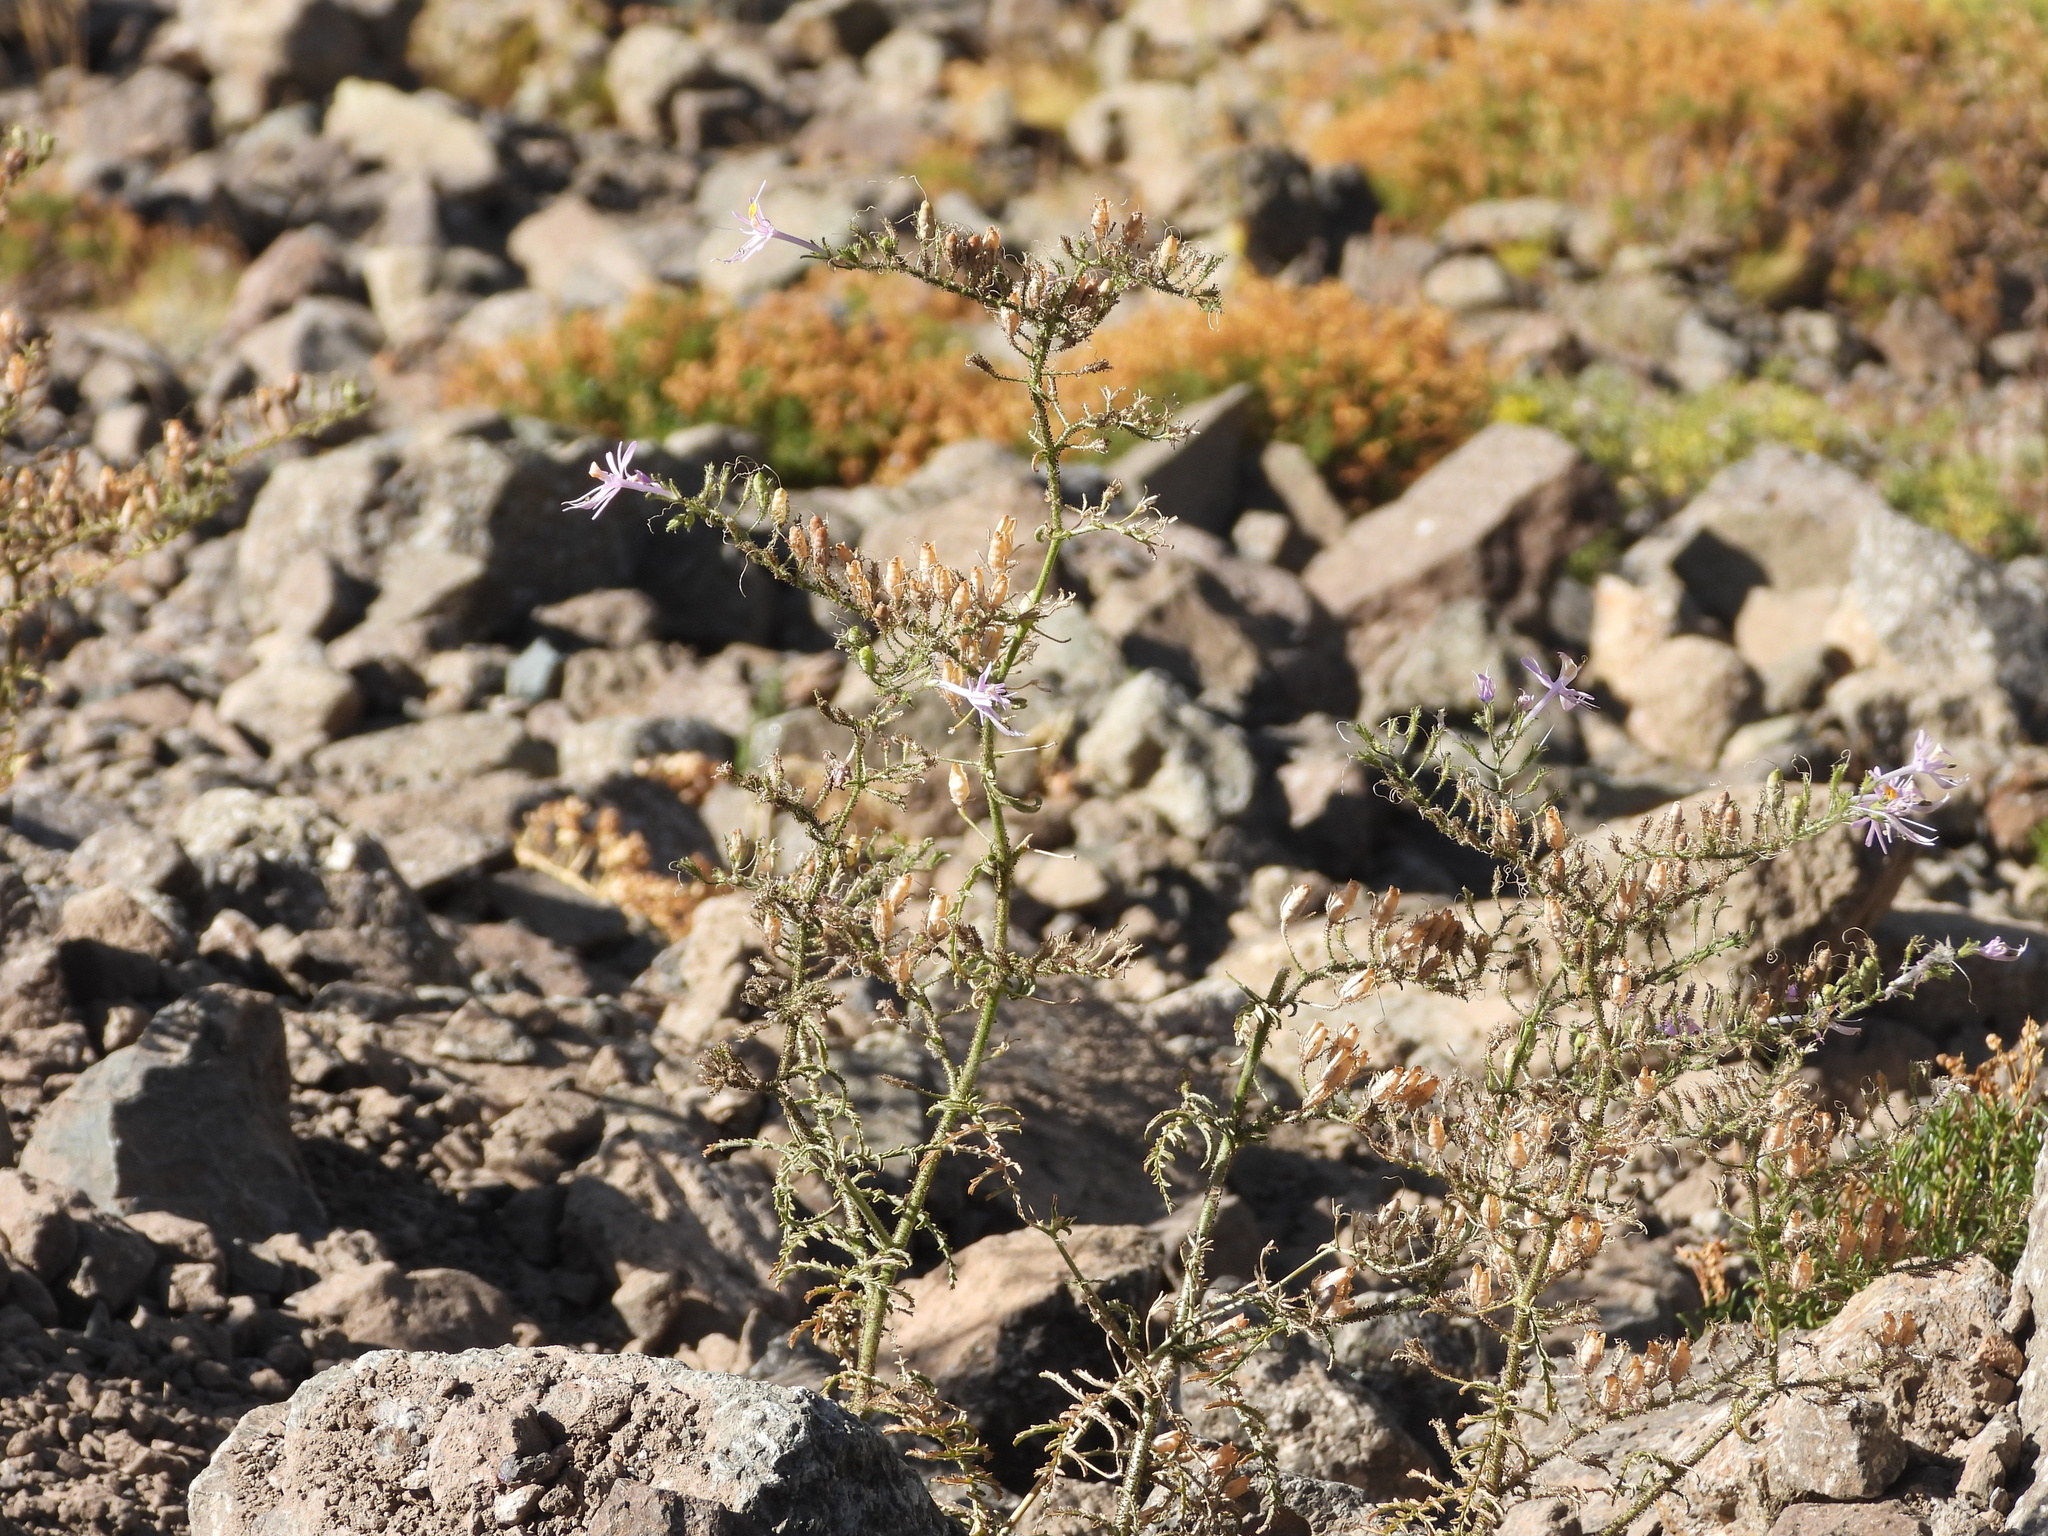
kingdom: Plantae
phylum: Tracheophyta
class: Magnoliopsida
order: Solanales
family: Solanaceae
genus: Schizanthus
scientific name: Schizanthus hookeri
